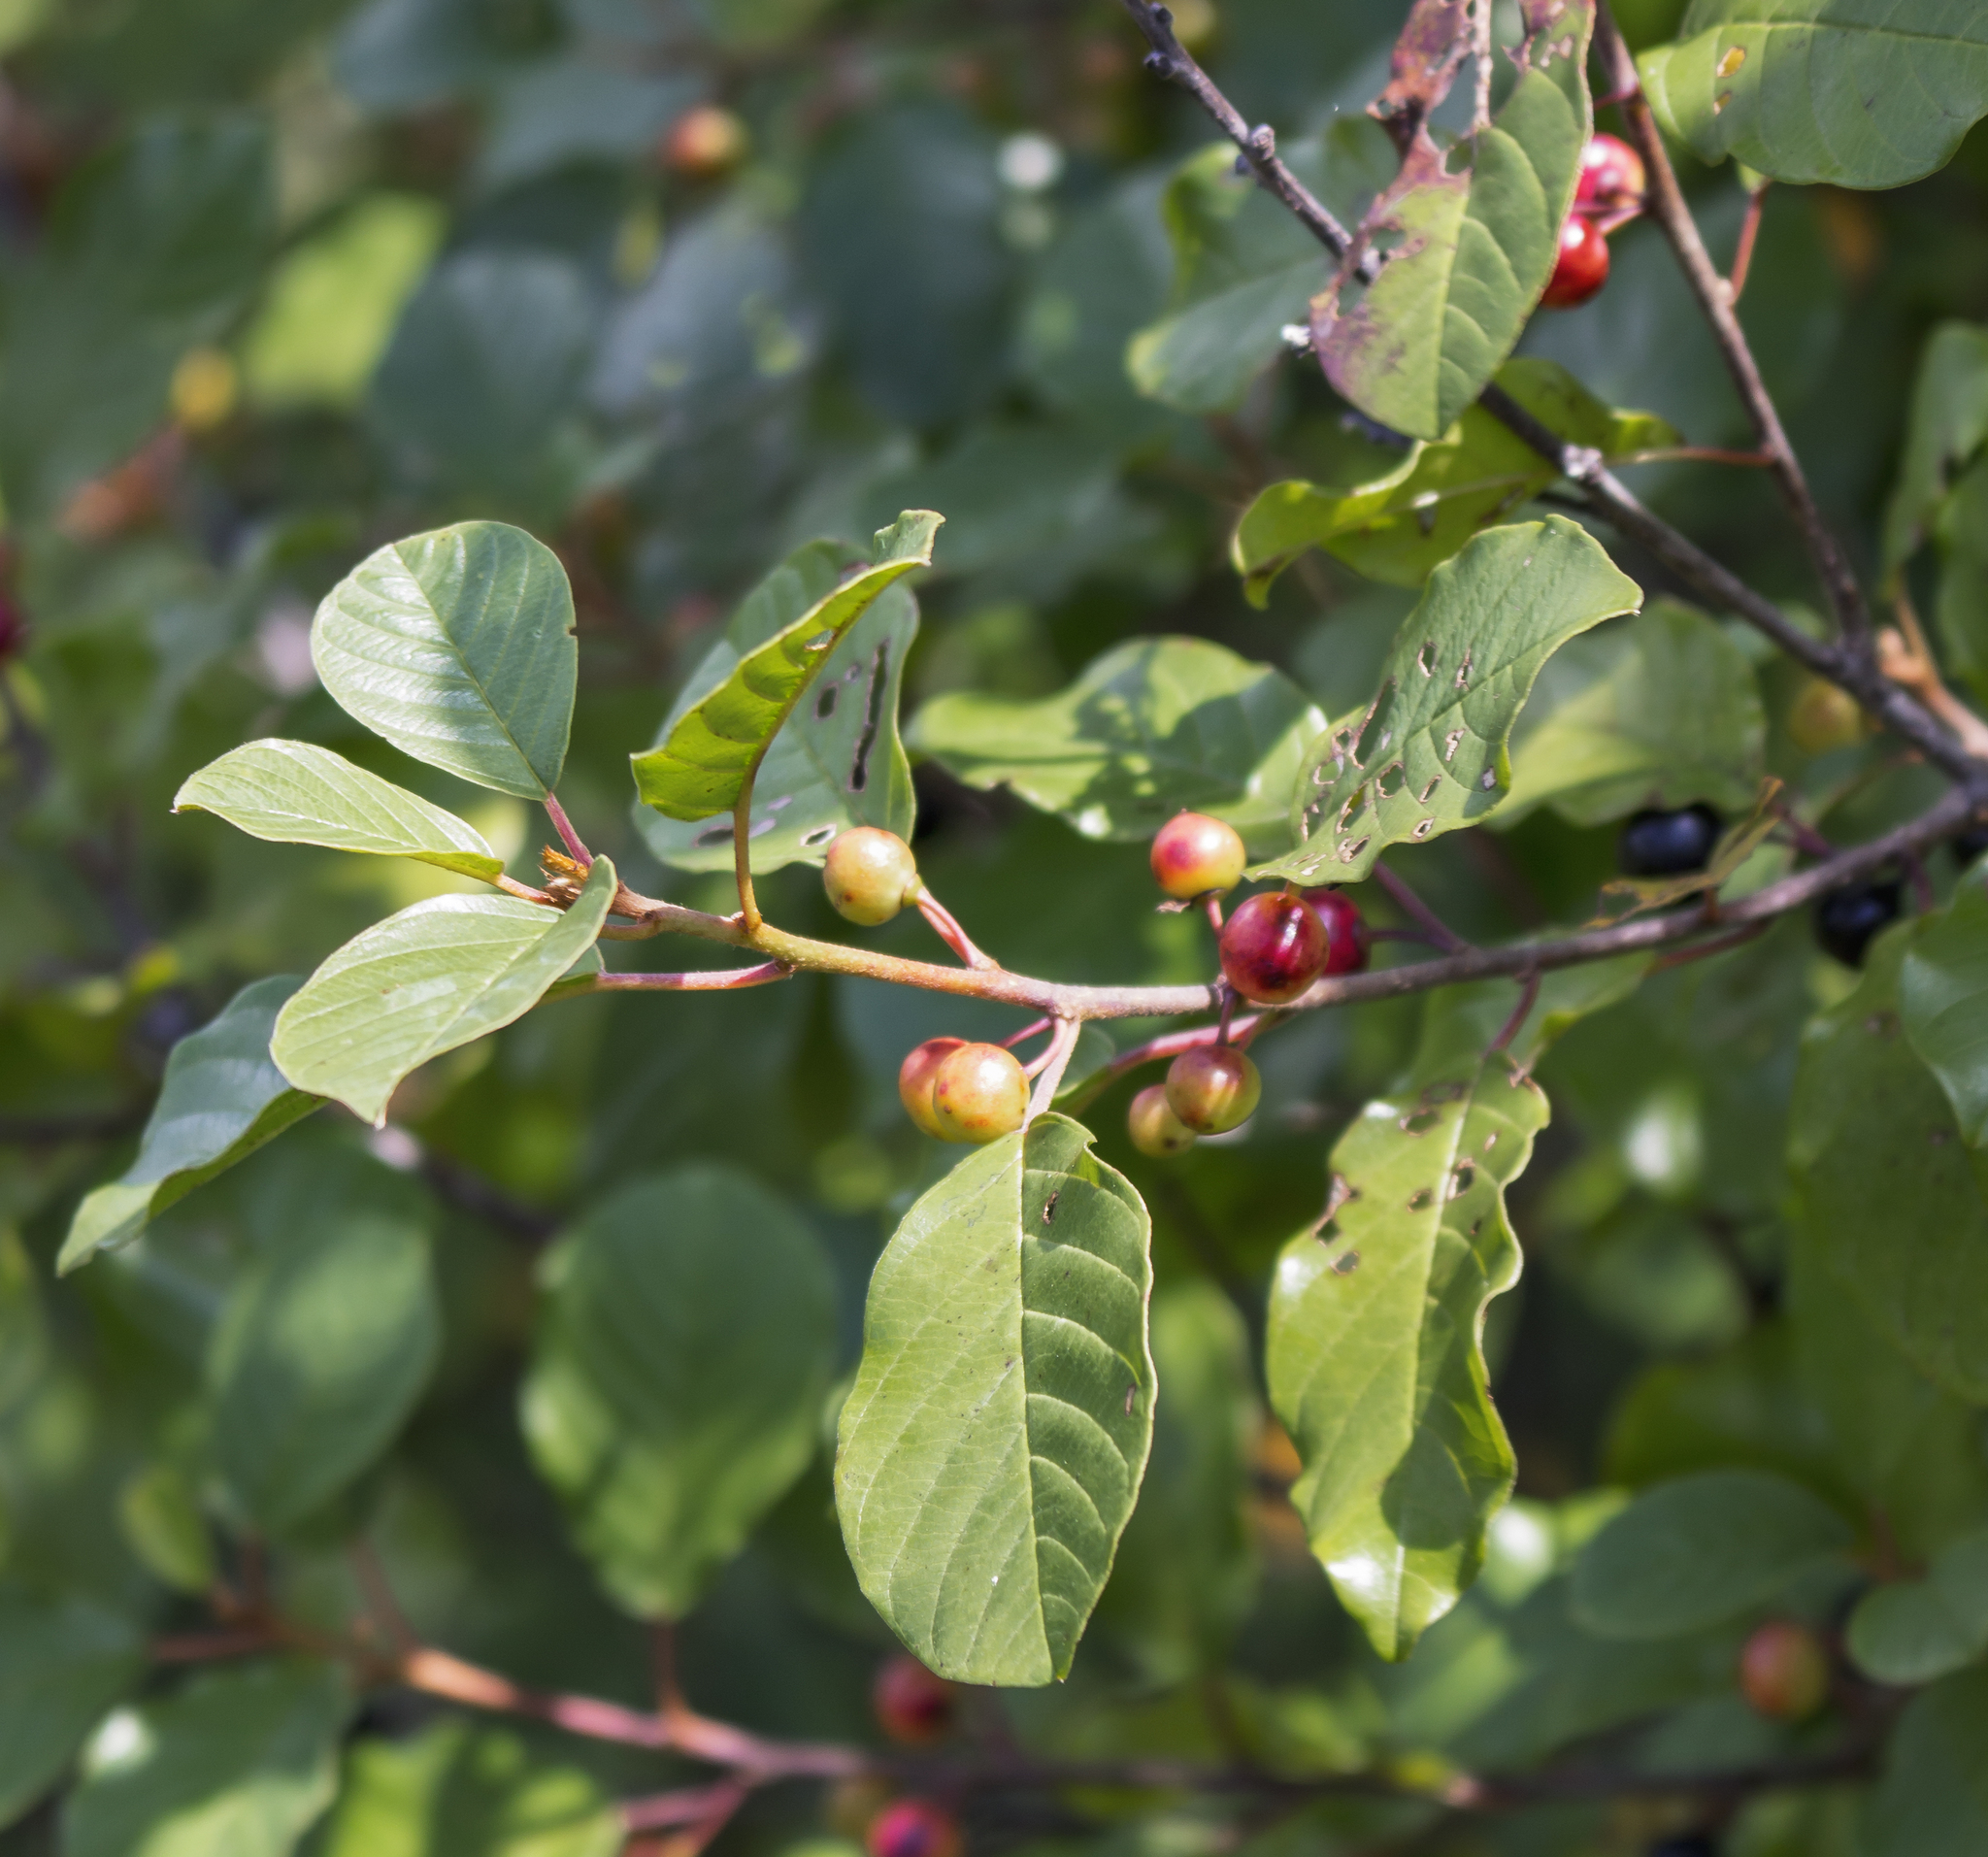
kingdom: Plantae
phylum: Tracheophyta
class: Magnoliopsida
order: Rosales
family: Rhamnaceae
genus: Frangula
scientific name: Frangula alnus
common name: Alder buckthorn
